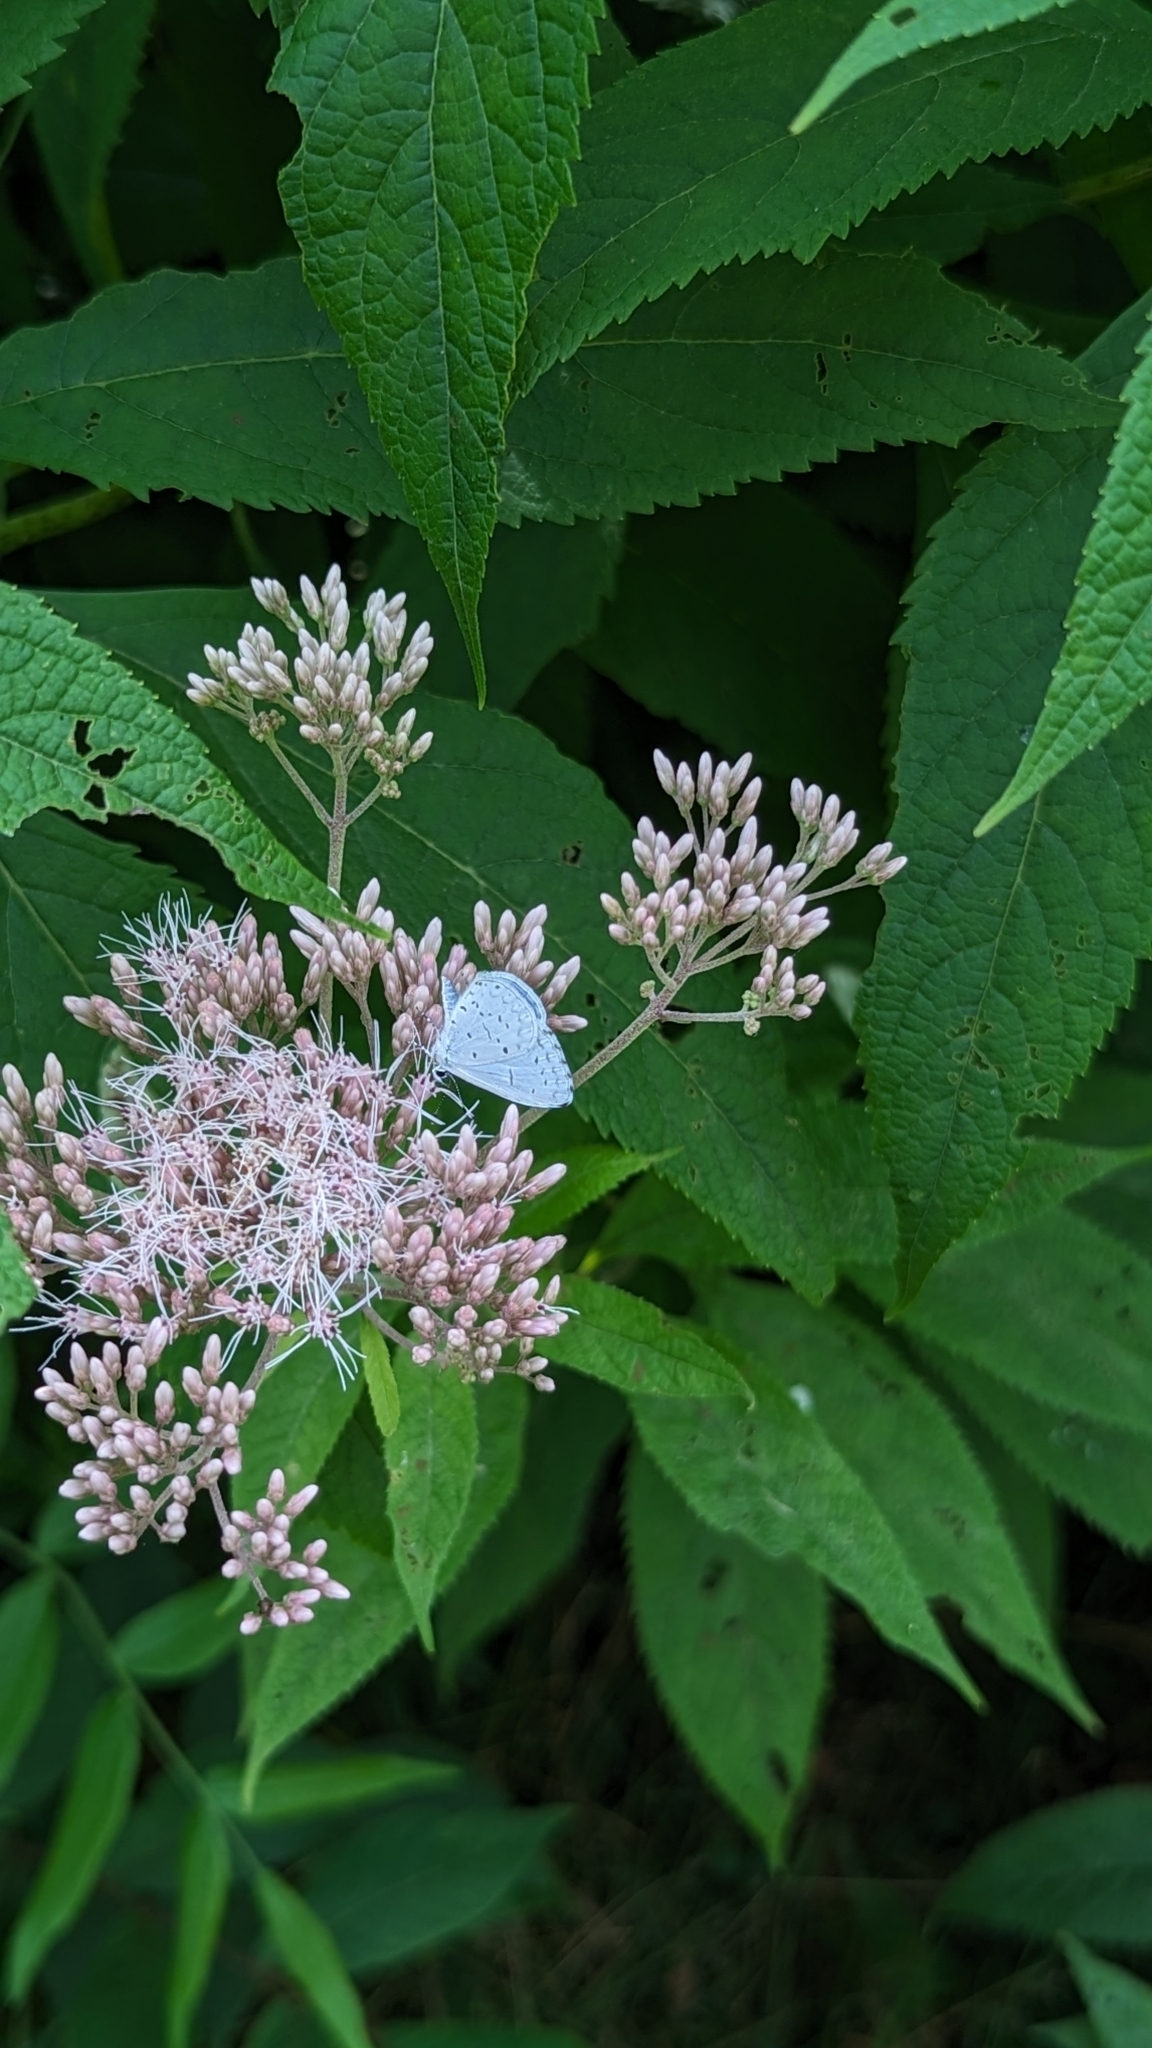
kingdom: Animalia
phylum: Arthropoda
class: Insecta
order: Lepidoptera
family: Lycaenidae
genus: Cyaniris
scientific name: Cyaniris neglecta
